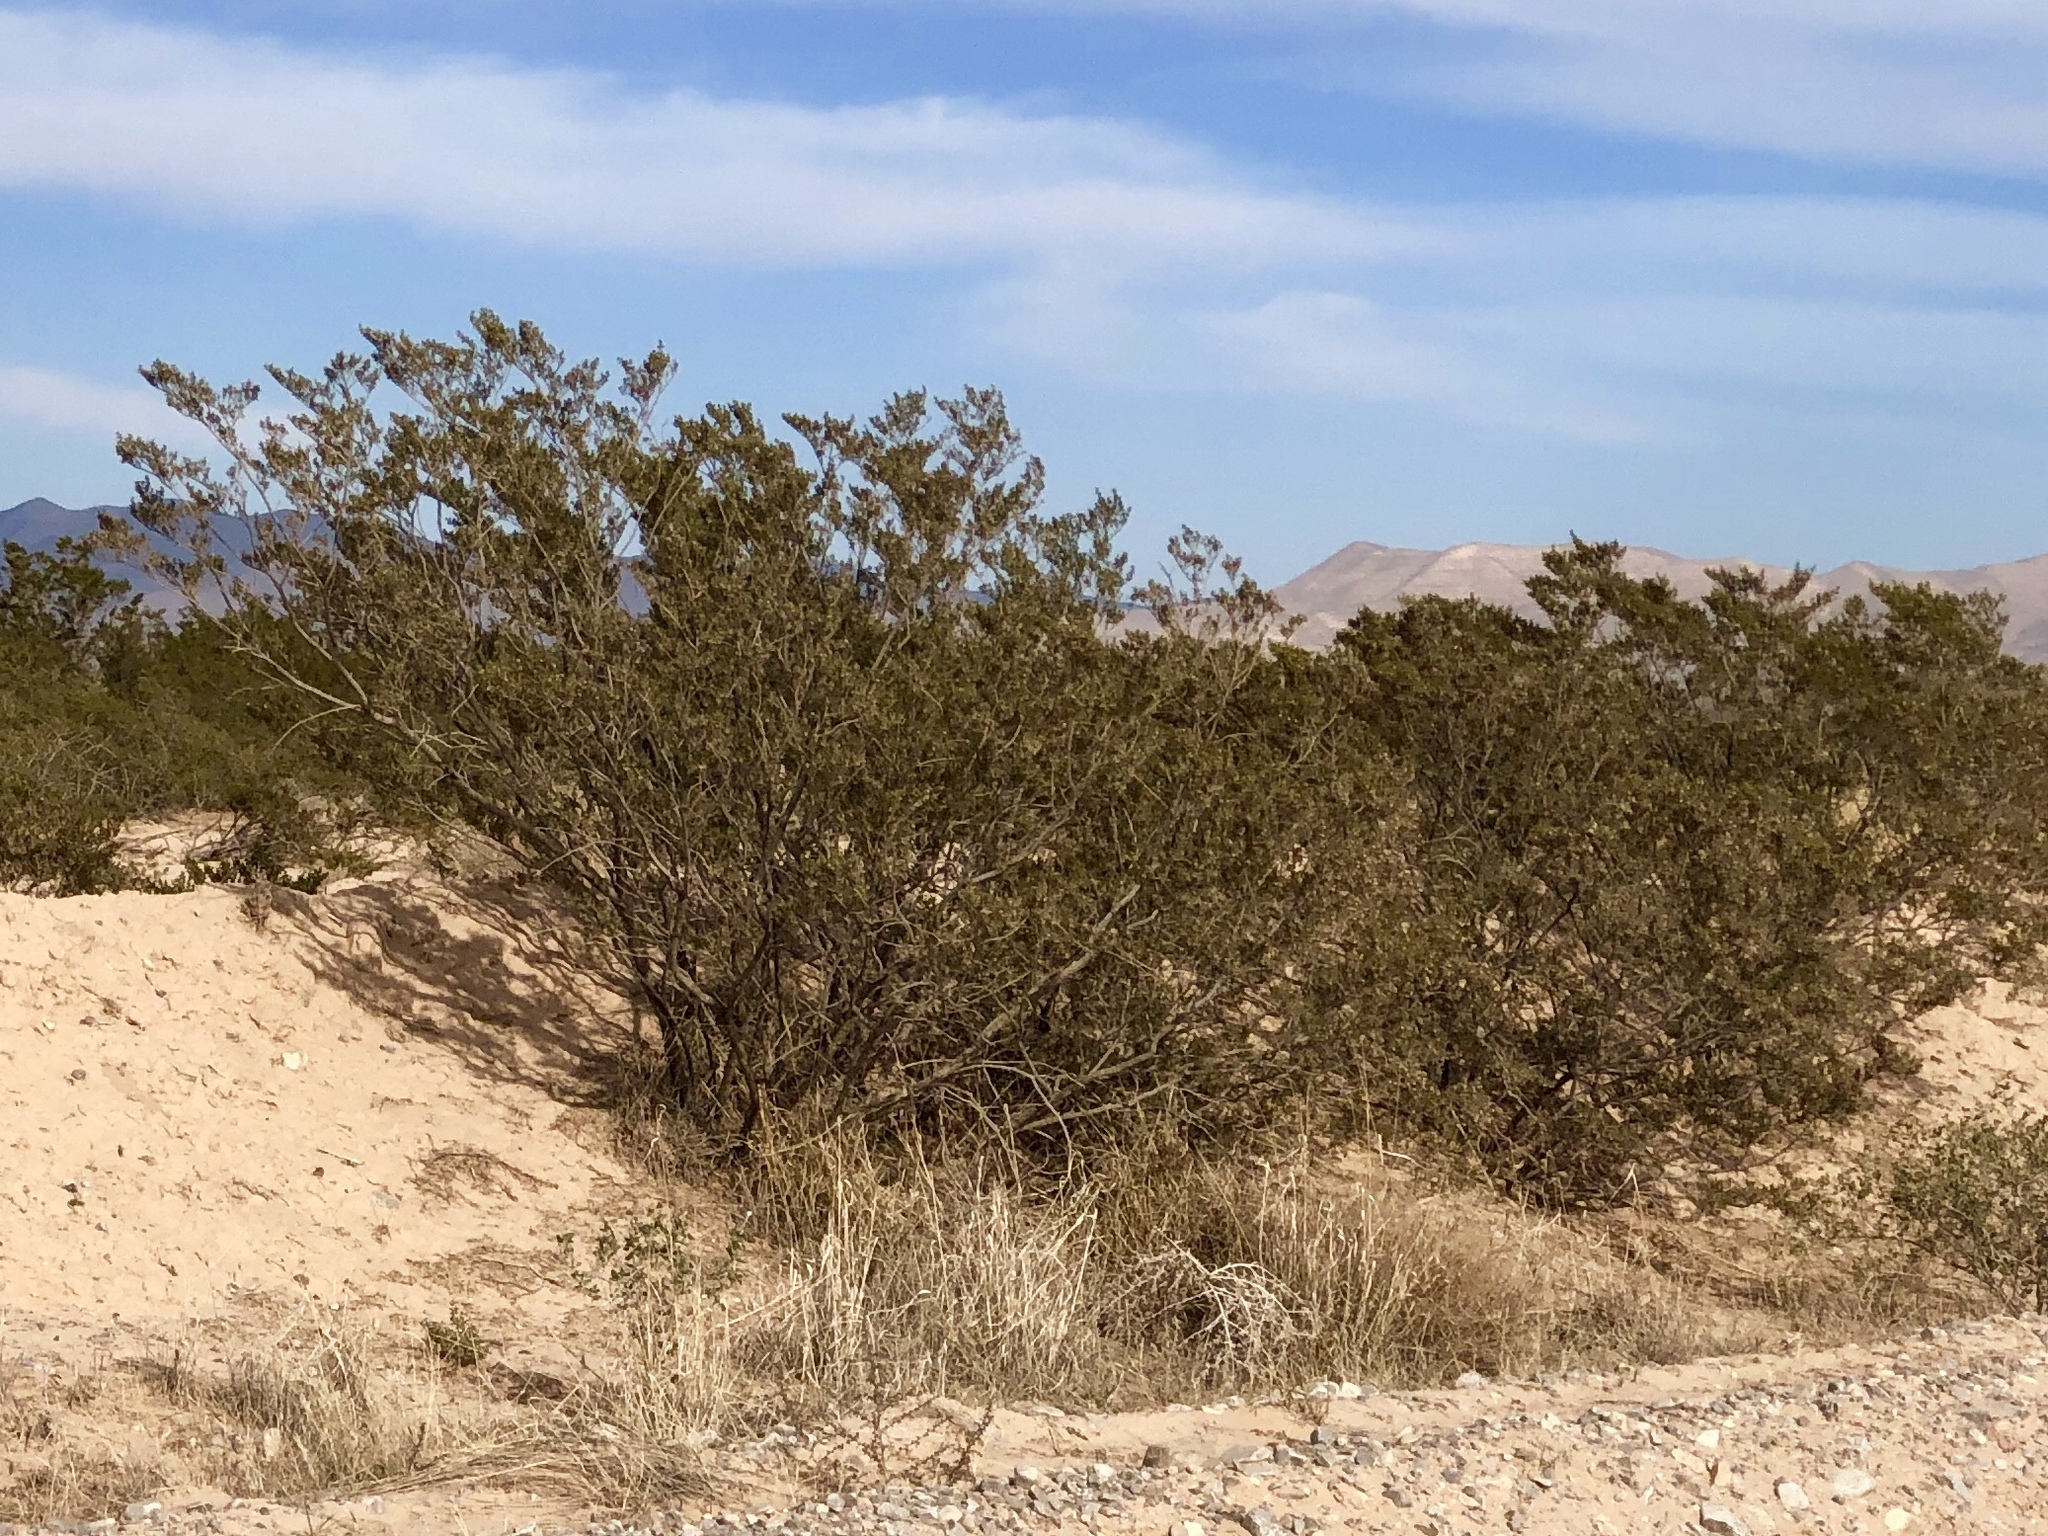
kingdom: Plantae
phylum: Tracheophyta
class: Magnoliopsida
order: Zygophyllales
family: Zygophyllaceae
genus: Larrea
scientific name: Larrea tridentata
